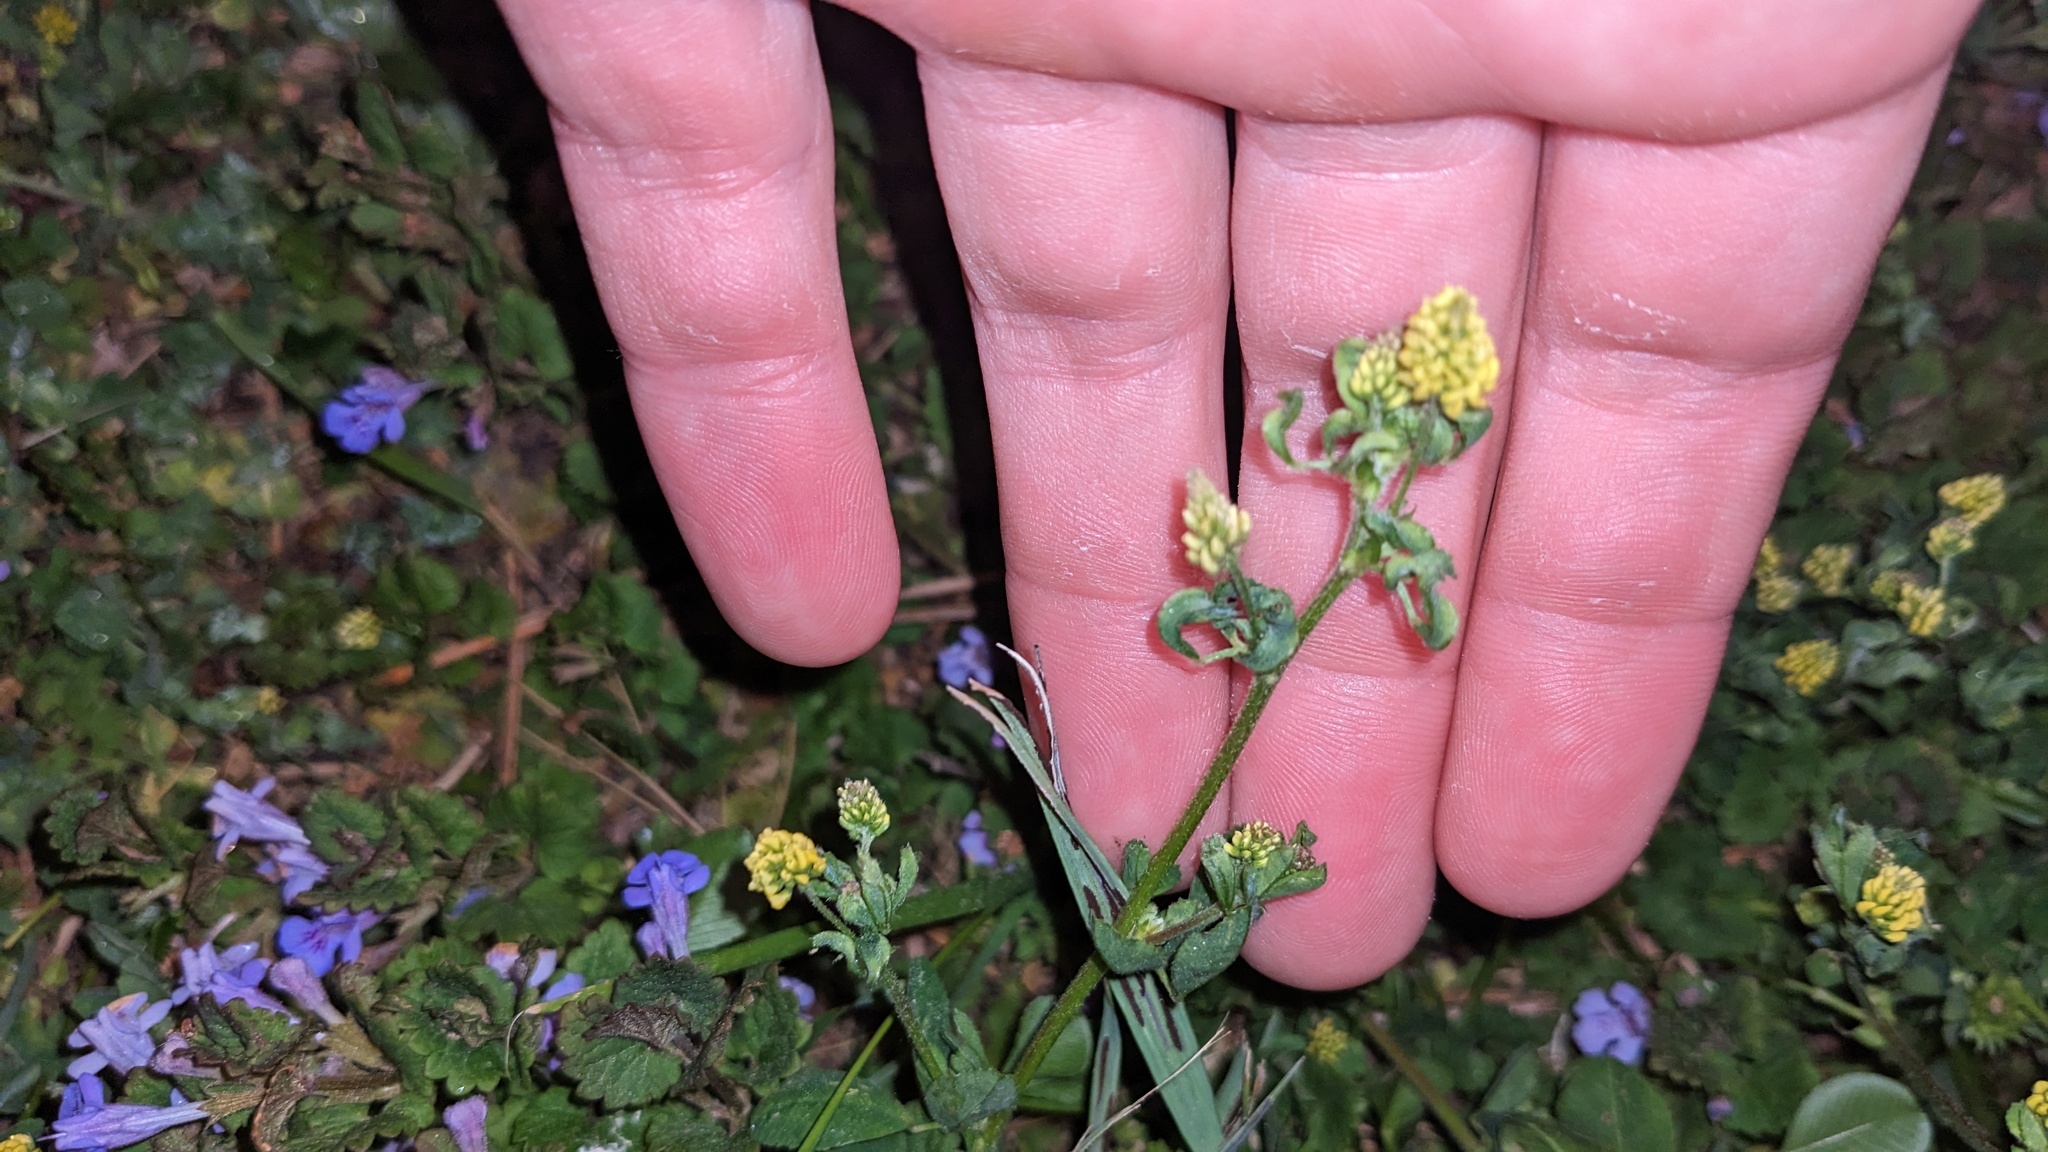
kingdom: Plantae
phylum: Tracheophyta
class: Magnoliopsida
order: Fabales
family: Fabaceae
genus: Medicago
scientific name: Medicago lupulina
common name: Black medick
